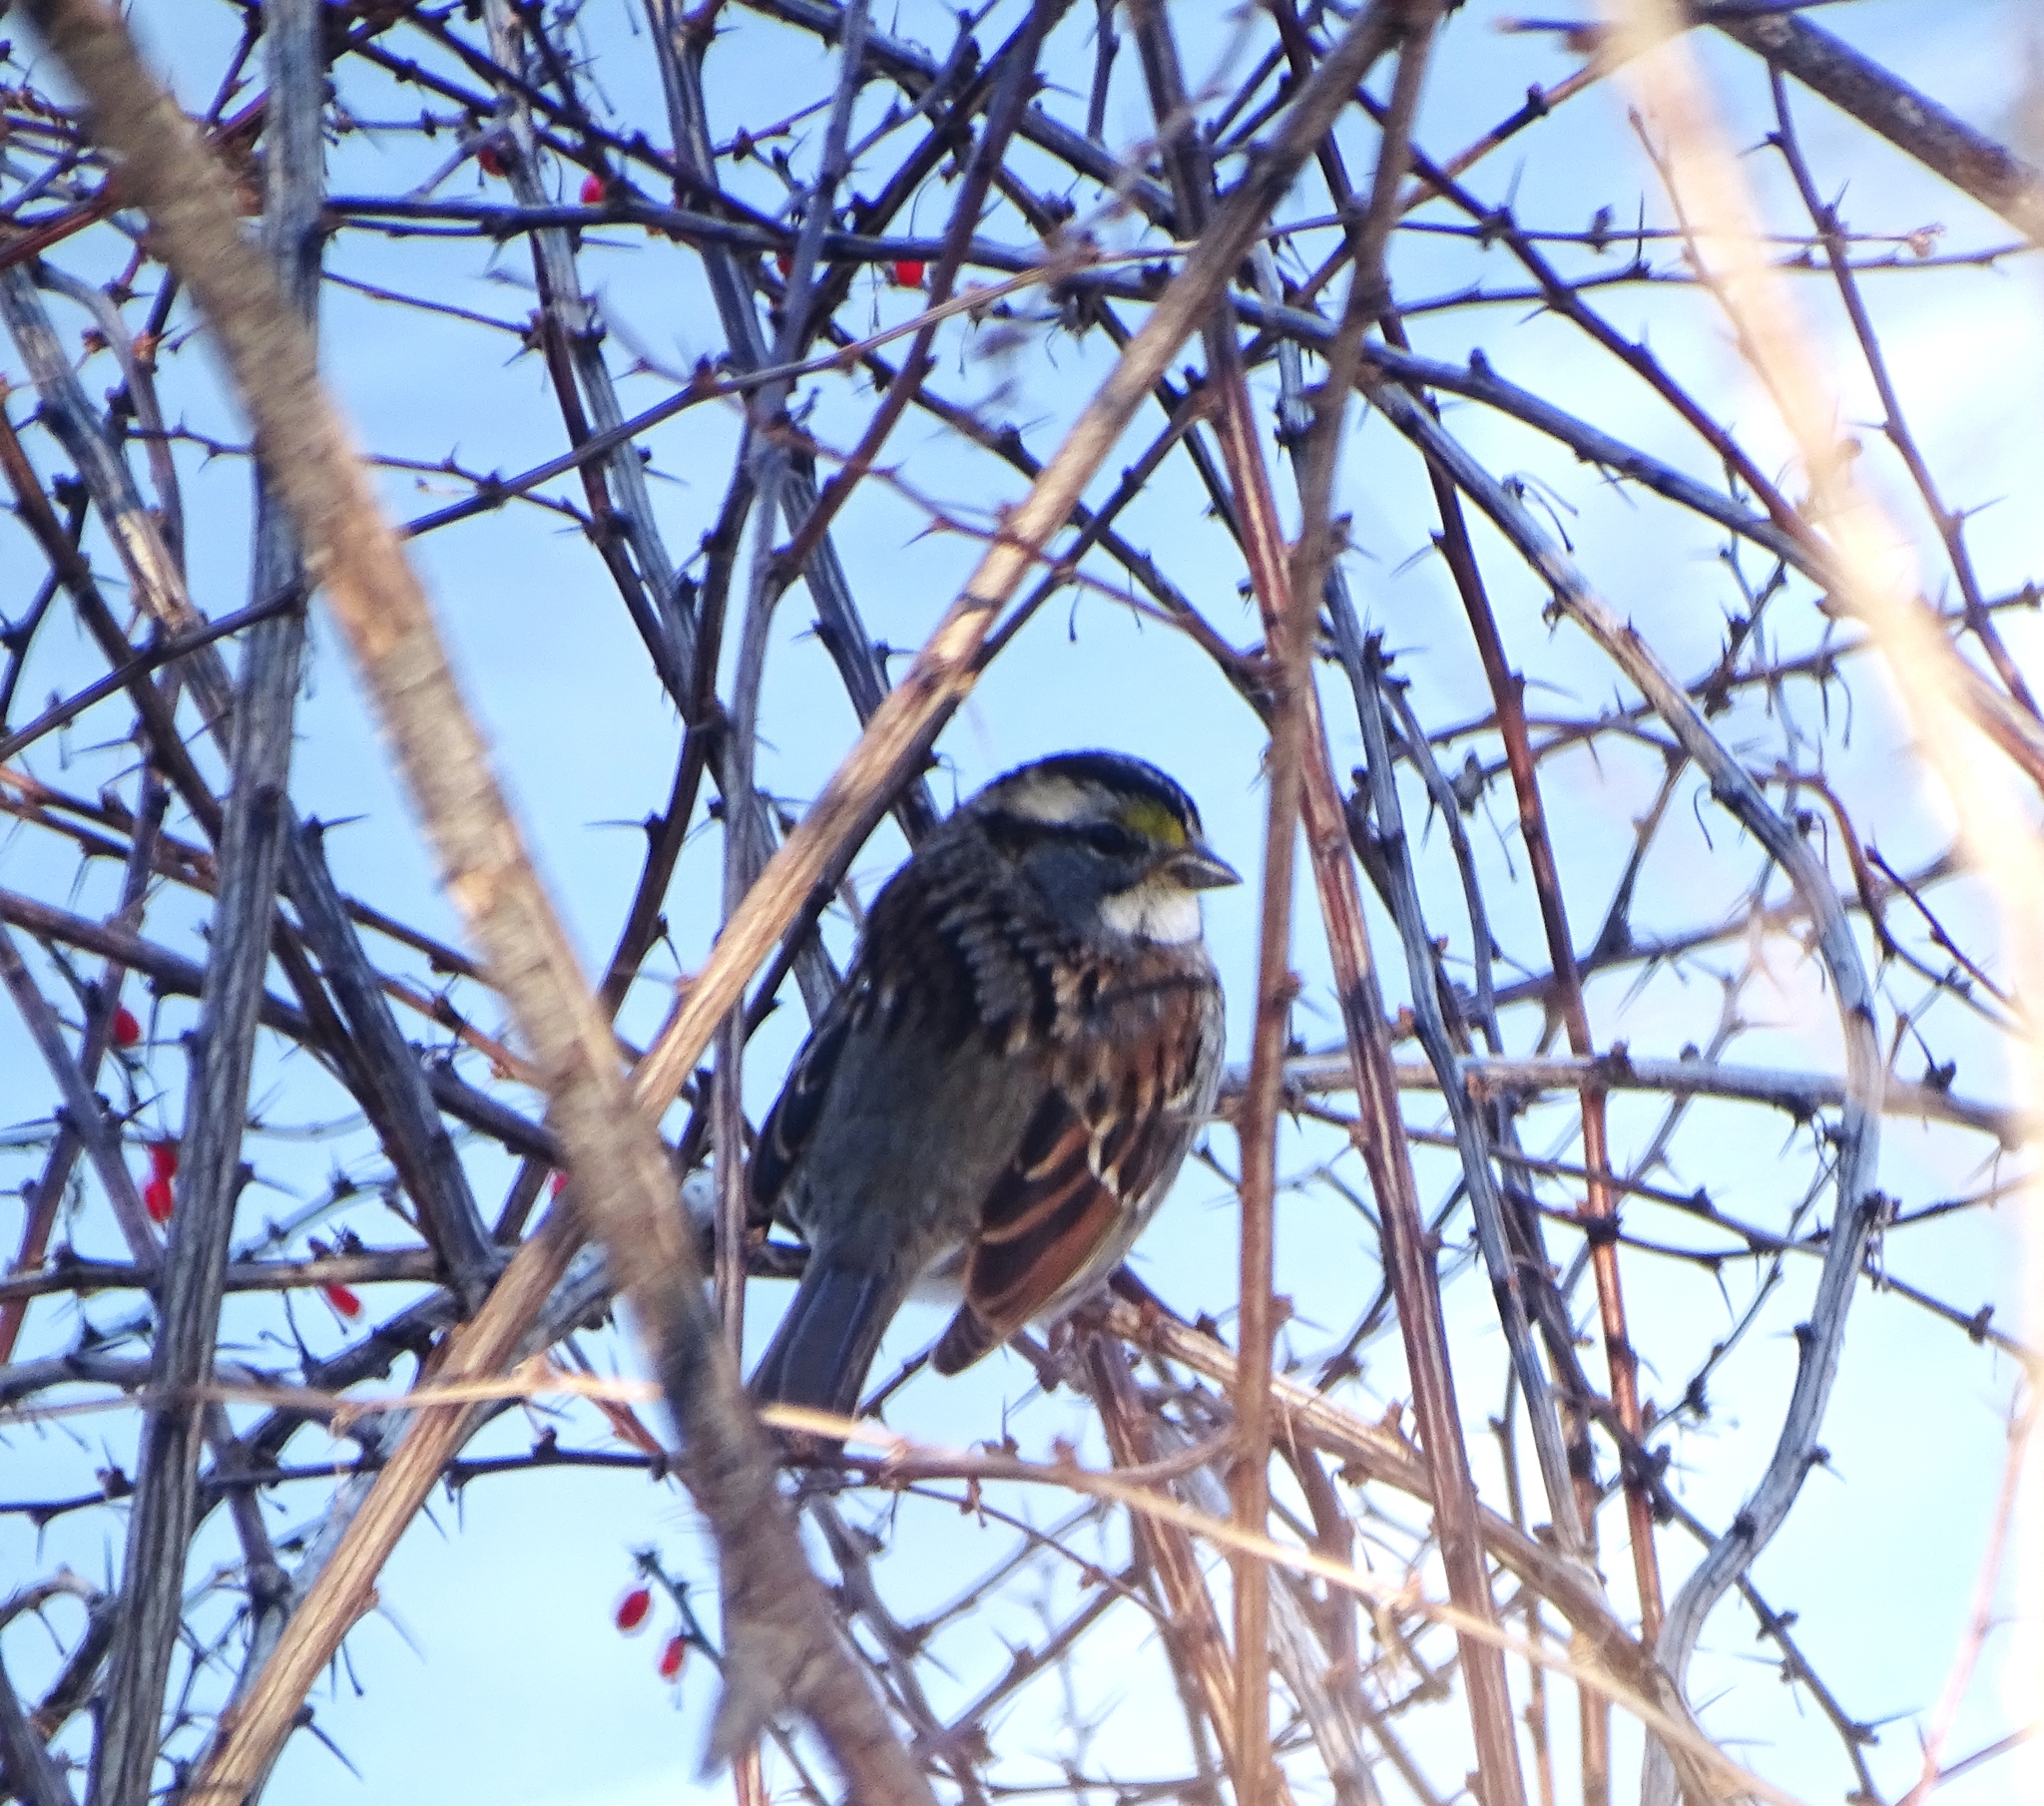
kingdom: Animalia
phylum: Chordata
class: Aves
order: Passeriformes
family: Passerellidae
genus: Zonotrichia
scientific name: Zonotrichia albicollis
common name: White-throated sparrow
